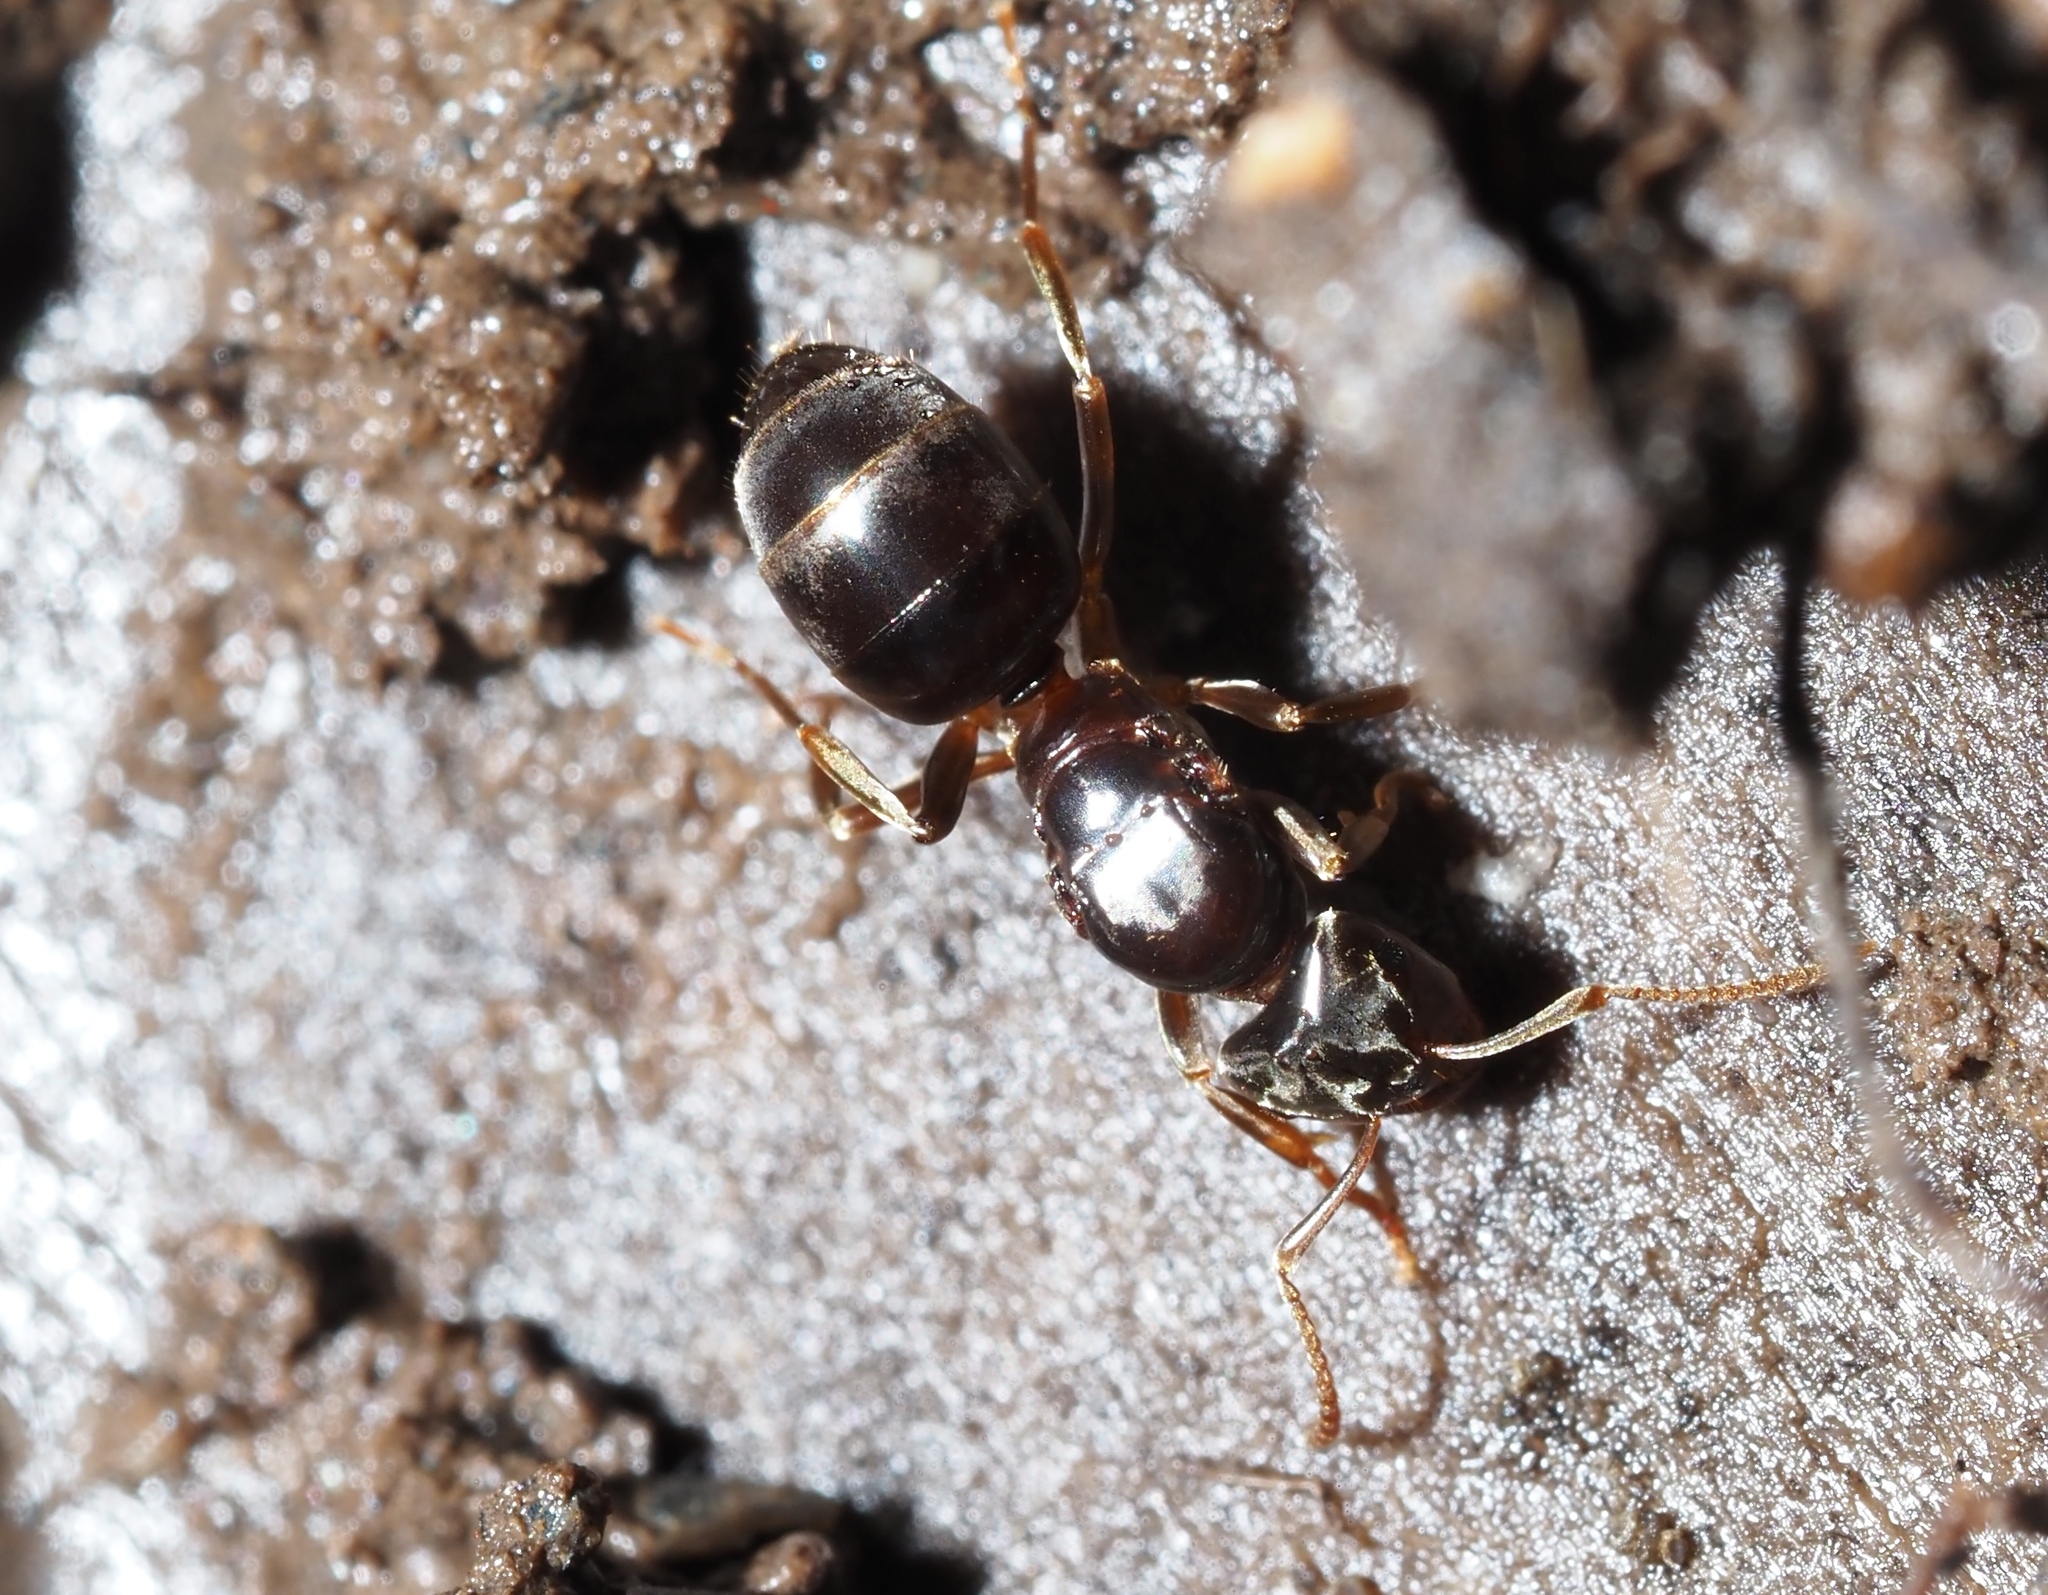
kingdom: Animalia
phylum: Arthropoda
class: Insecta
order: Hymenoptera
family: Formicidae
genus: Lasius
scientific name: Lasius aphidicola
